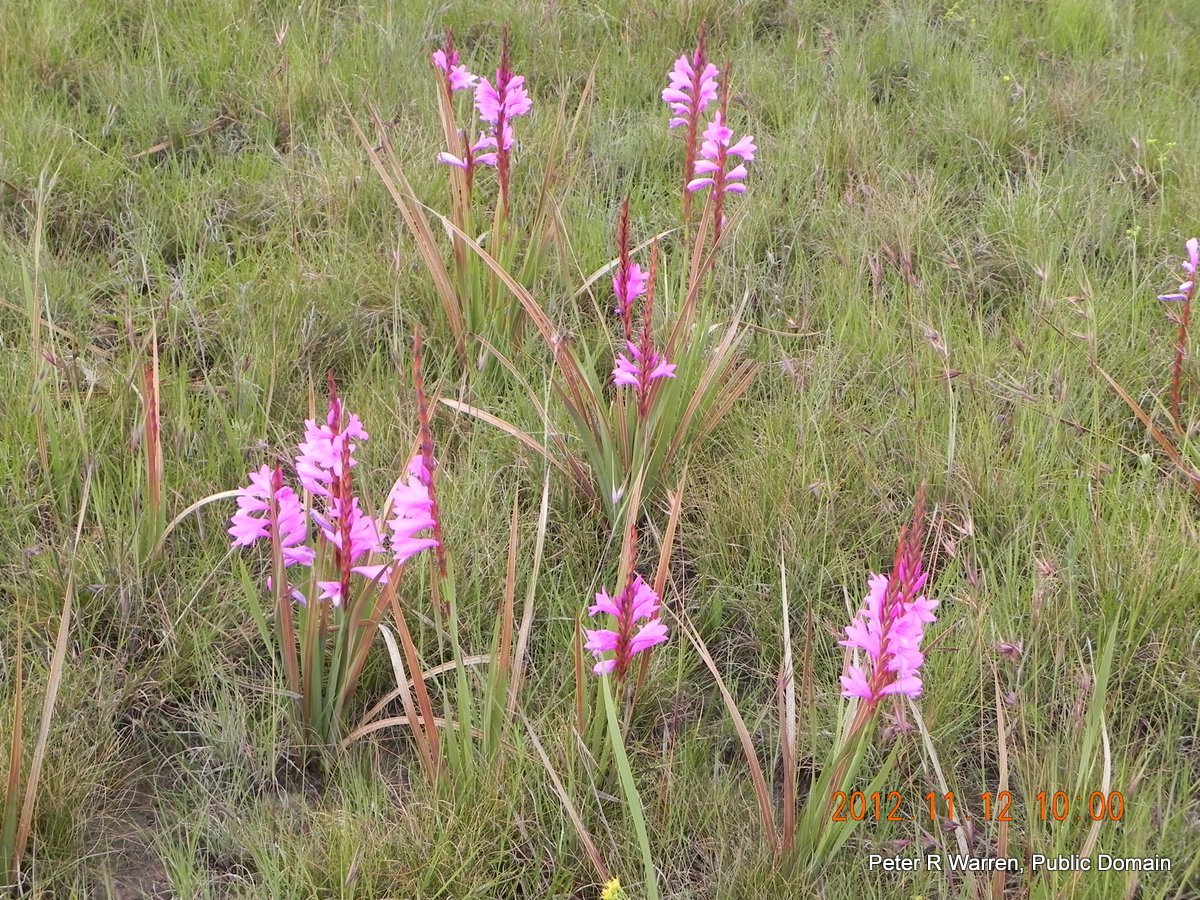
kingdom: Plantae
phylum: Tracheophyta
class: Liliopsida
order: Asparagales
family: Iridaceae
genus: Watsonia
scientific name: Watsonia lepida
